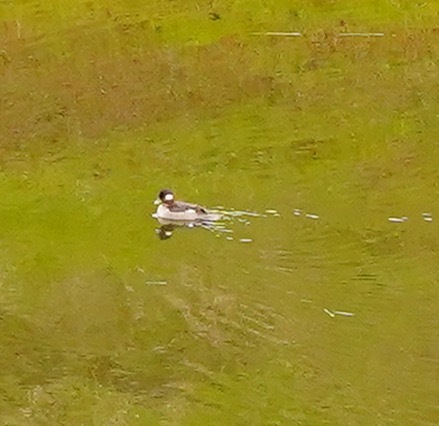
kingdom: Animalia
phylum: Chordata
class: Aves
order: Anseriformes
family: Anatidae
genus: Bucephala
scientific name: Bucephala albeola
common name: Bufflehead
